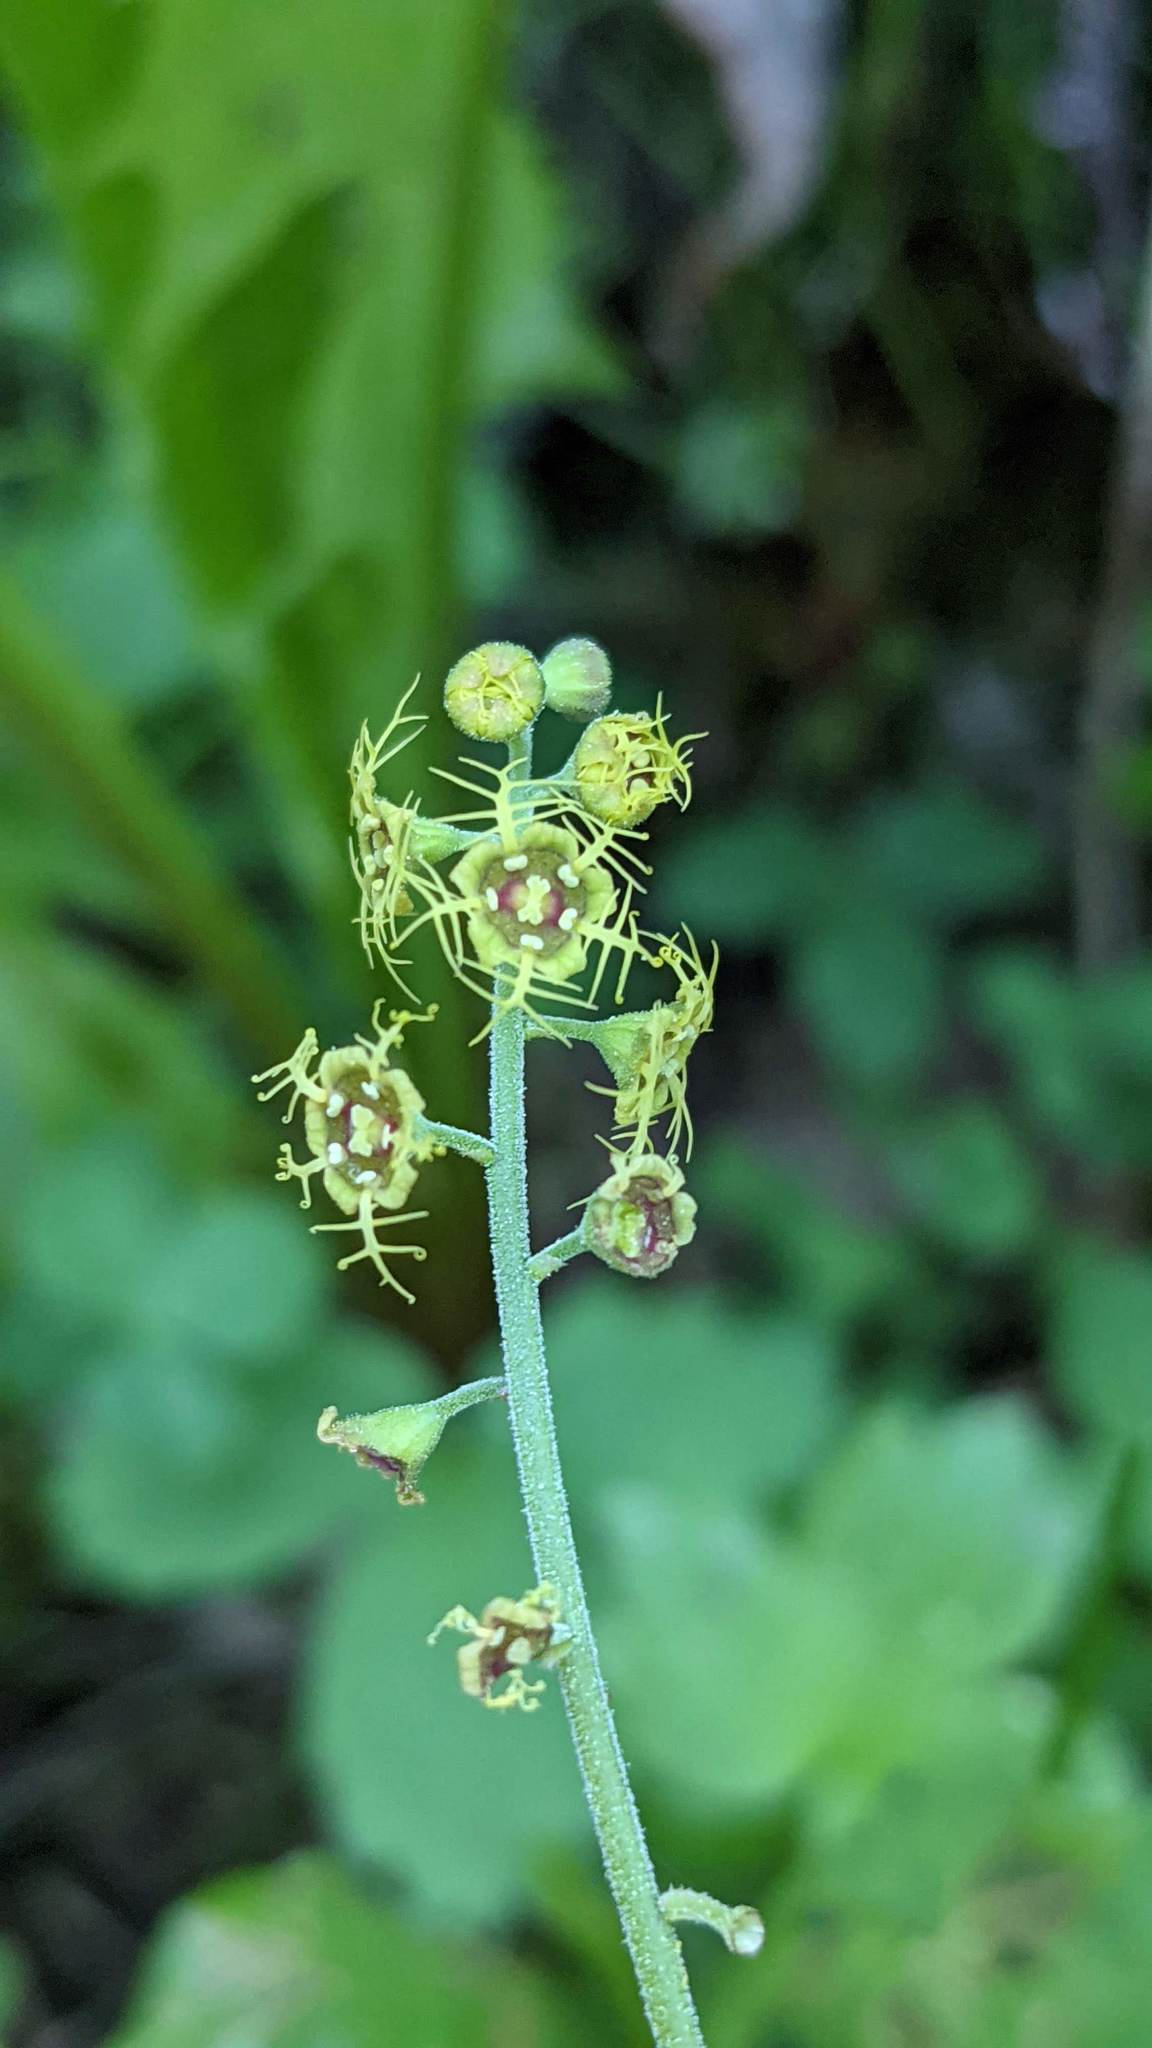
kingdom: Plantae
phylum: Tracheophyta
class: Magnoliopsida
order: Saxifragales
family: Saxifragaceae
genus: Pectiantia
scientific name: Pectiantia pentandra
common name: Alpine bishop's-cap
